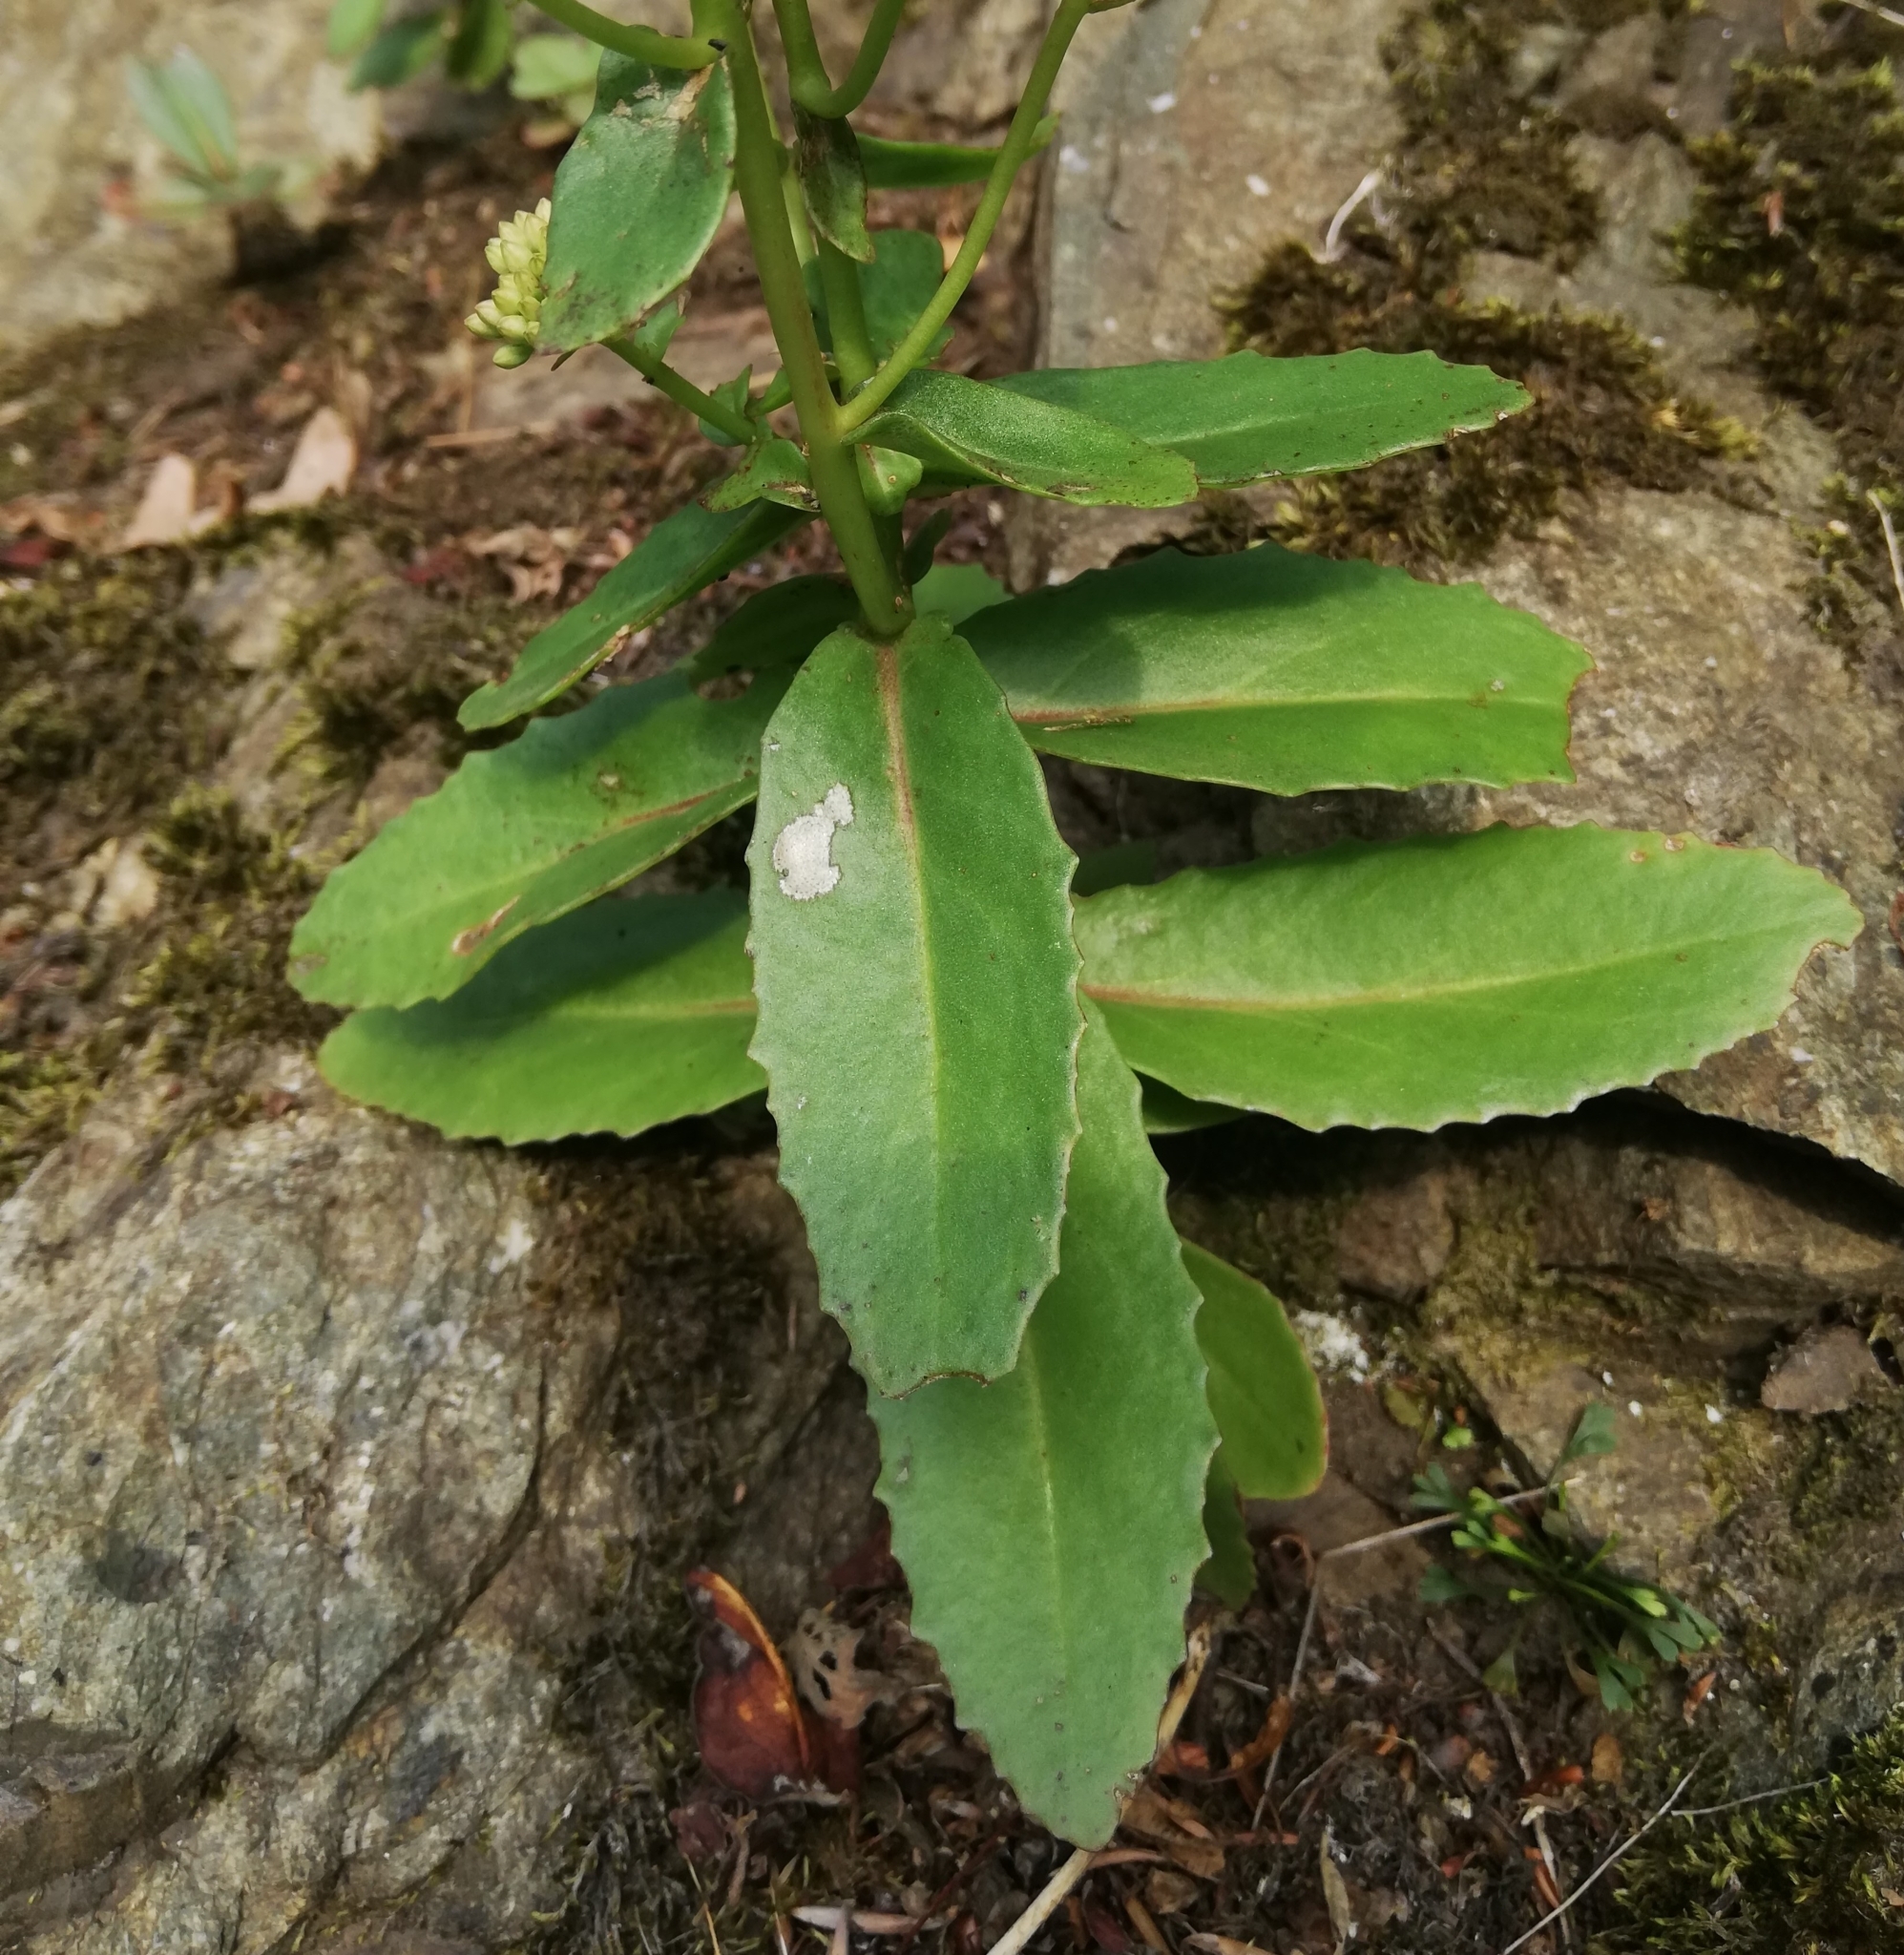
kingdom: Plantae
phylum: Tracheophyta
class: Magnoliopsida
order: Saxifragales
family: Crassulaceae
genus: Hylotelephium
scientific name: Hylotelephium maximum
